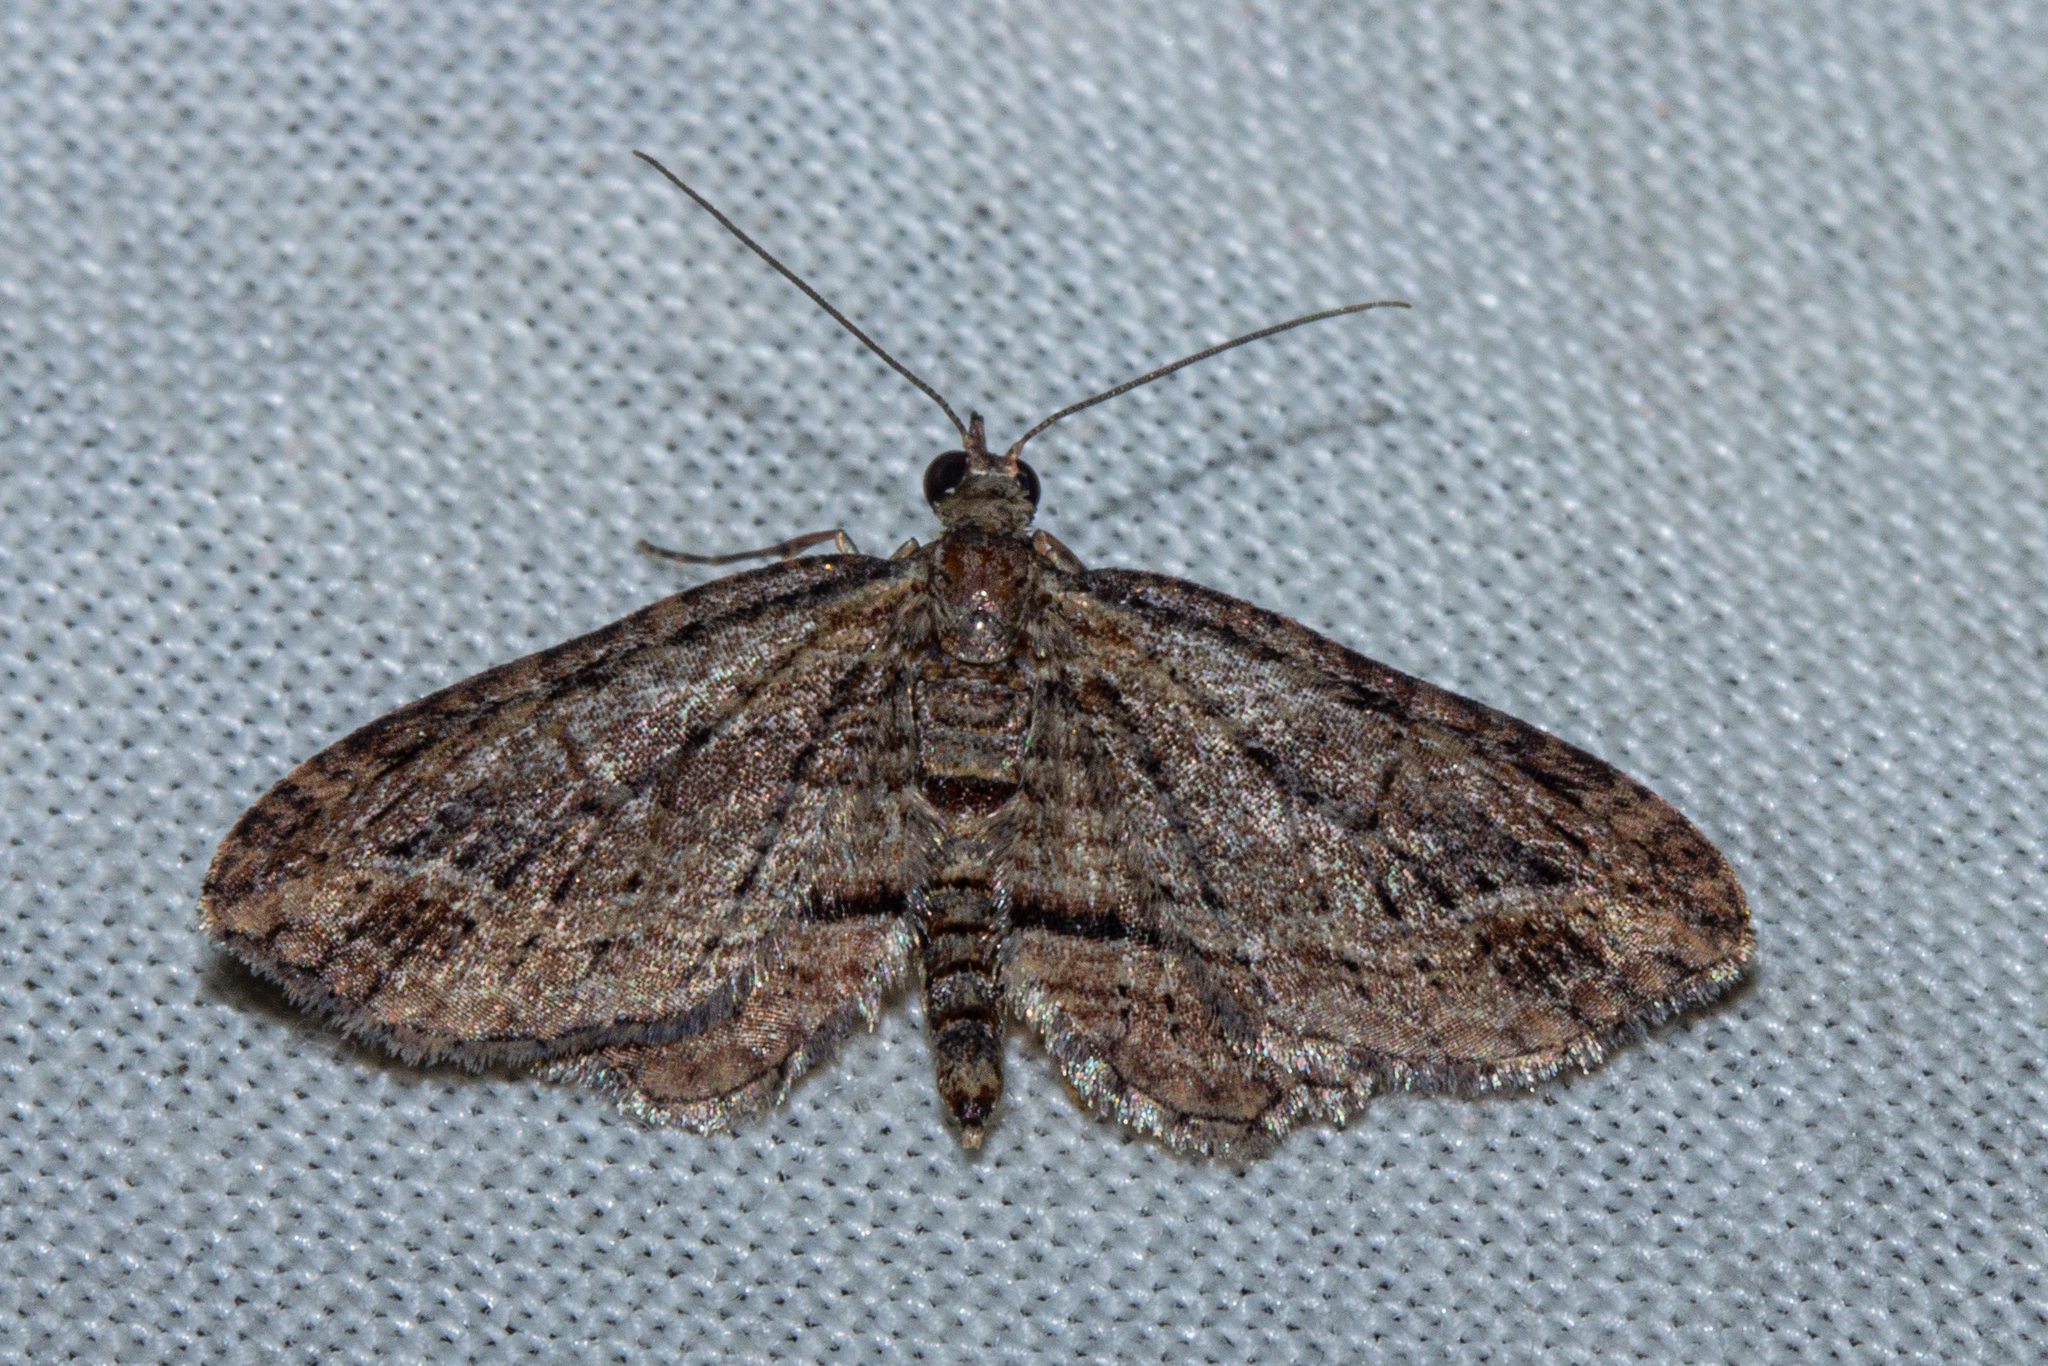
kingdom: Animalia
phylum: Arthropoda
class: Insecta
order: Lepidoptera
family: Geometridae
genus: Chloroclystis
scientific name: Chloroclystis filata
